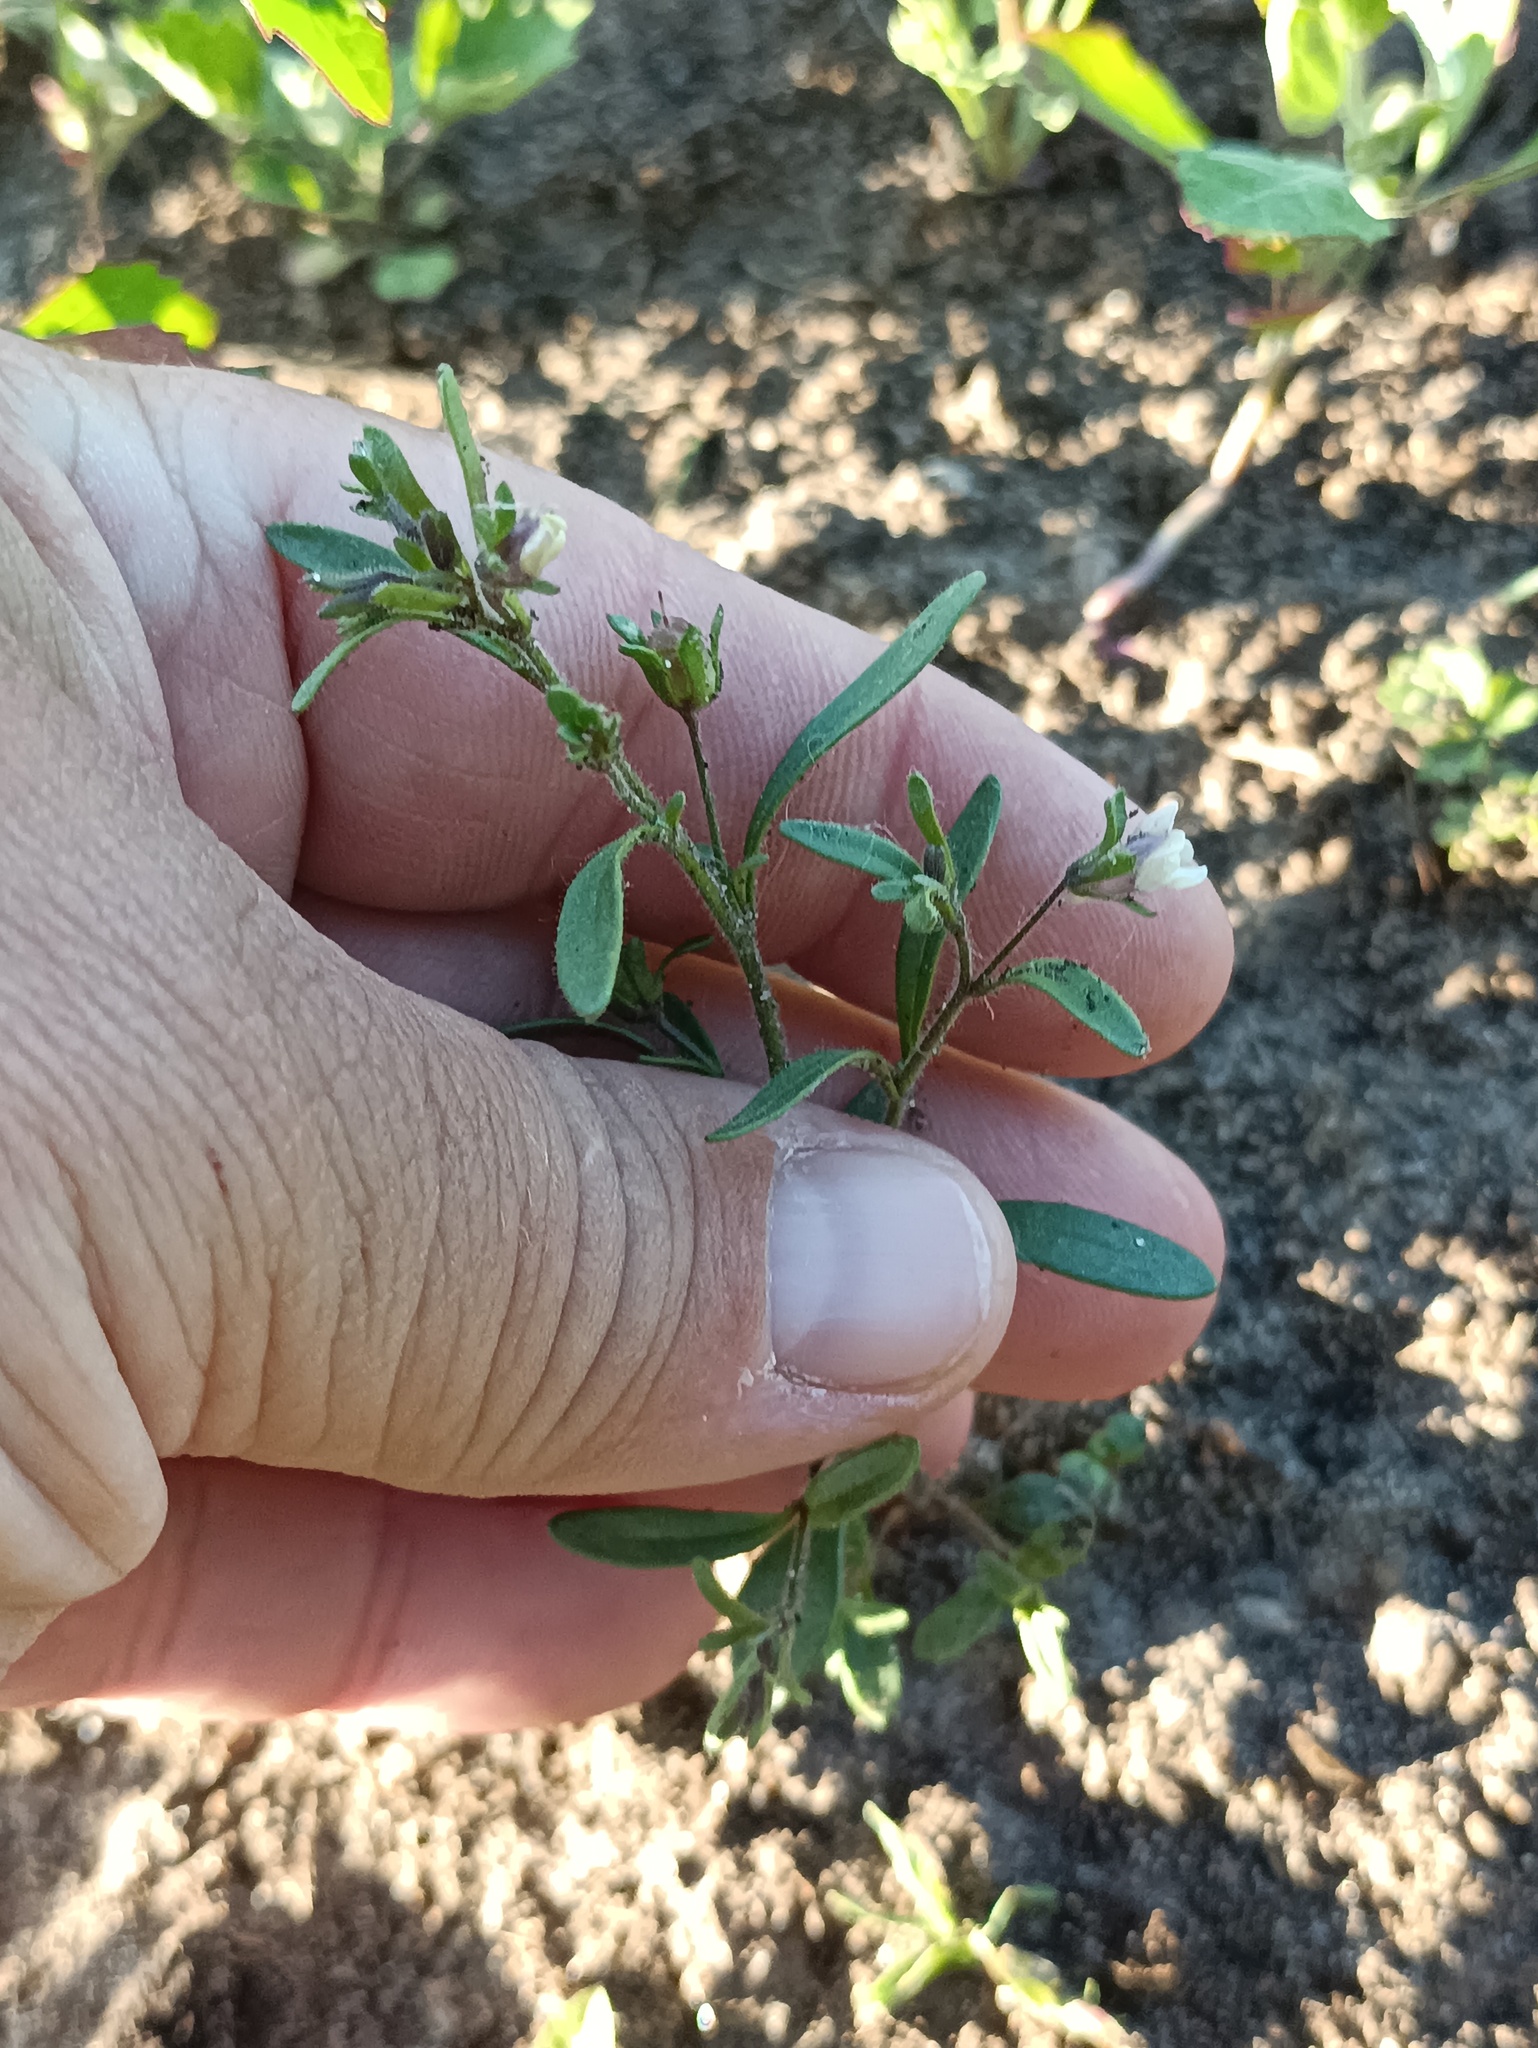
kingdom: Plantae
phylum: Tracheophyta
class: Magnoliopsida
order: Lamiales
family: Plantaginaceae
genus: Chaenorhinum
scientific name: Chaenorhinum minus
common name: Dwarf snapdragon
